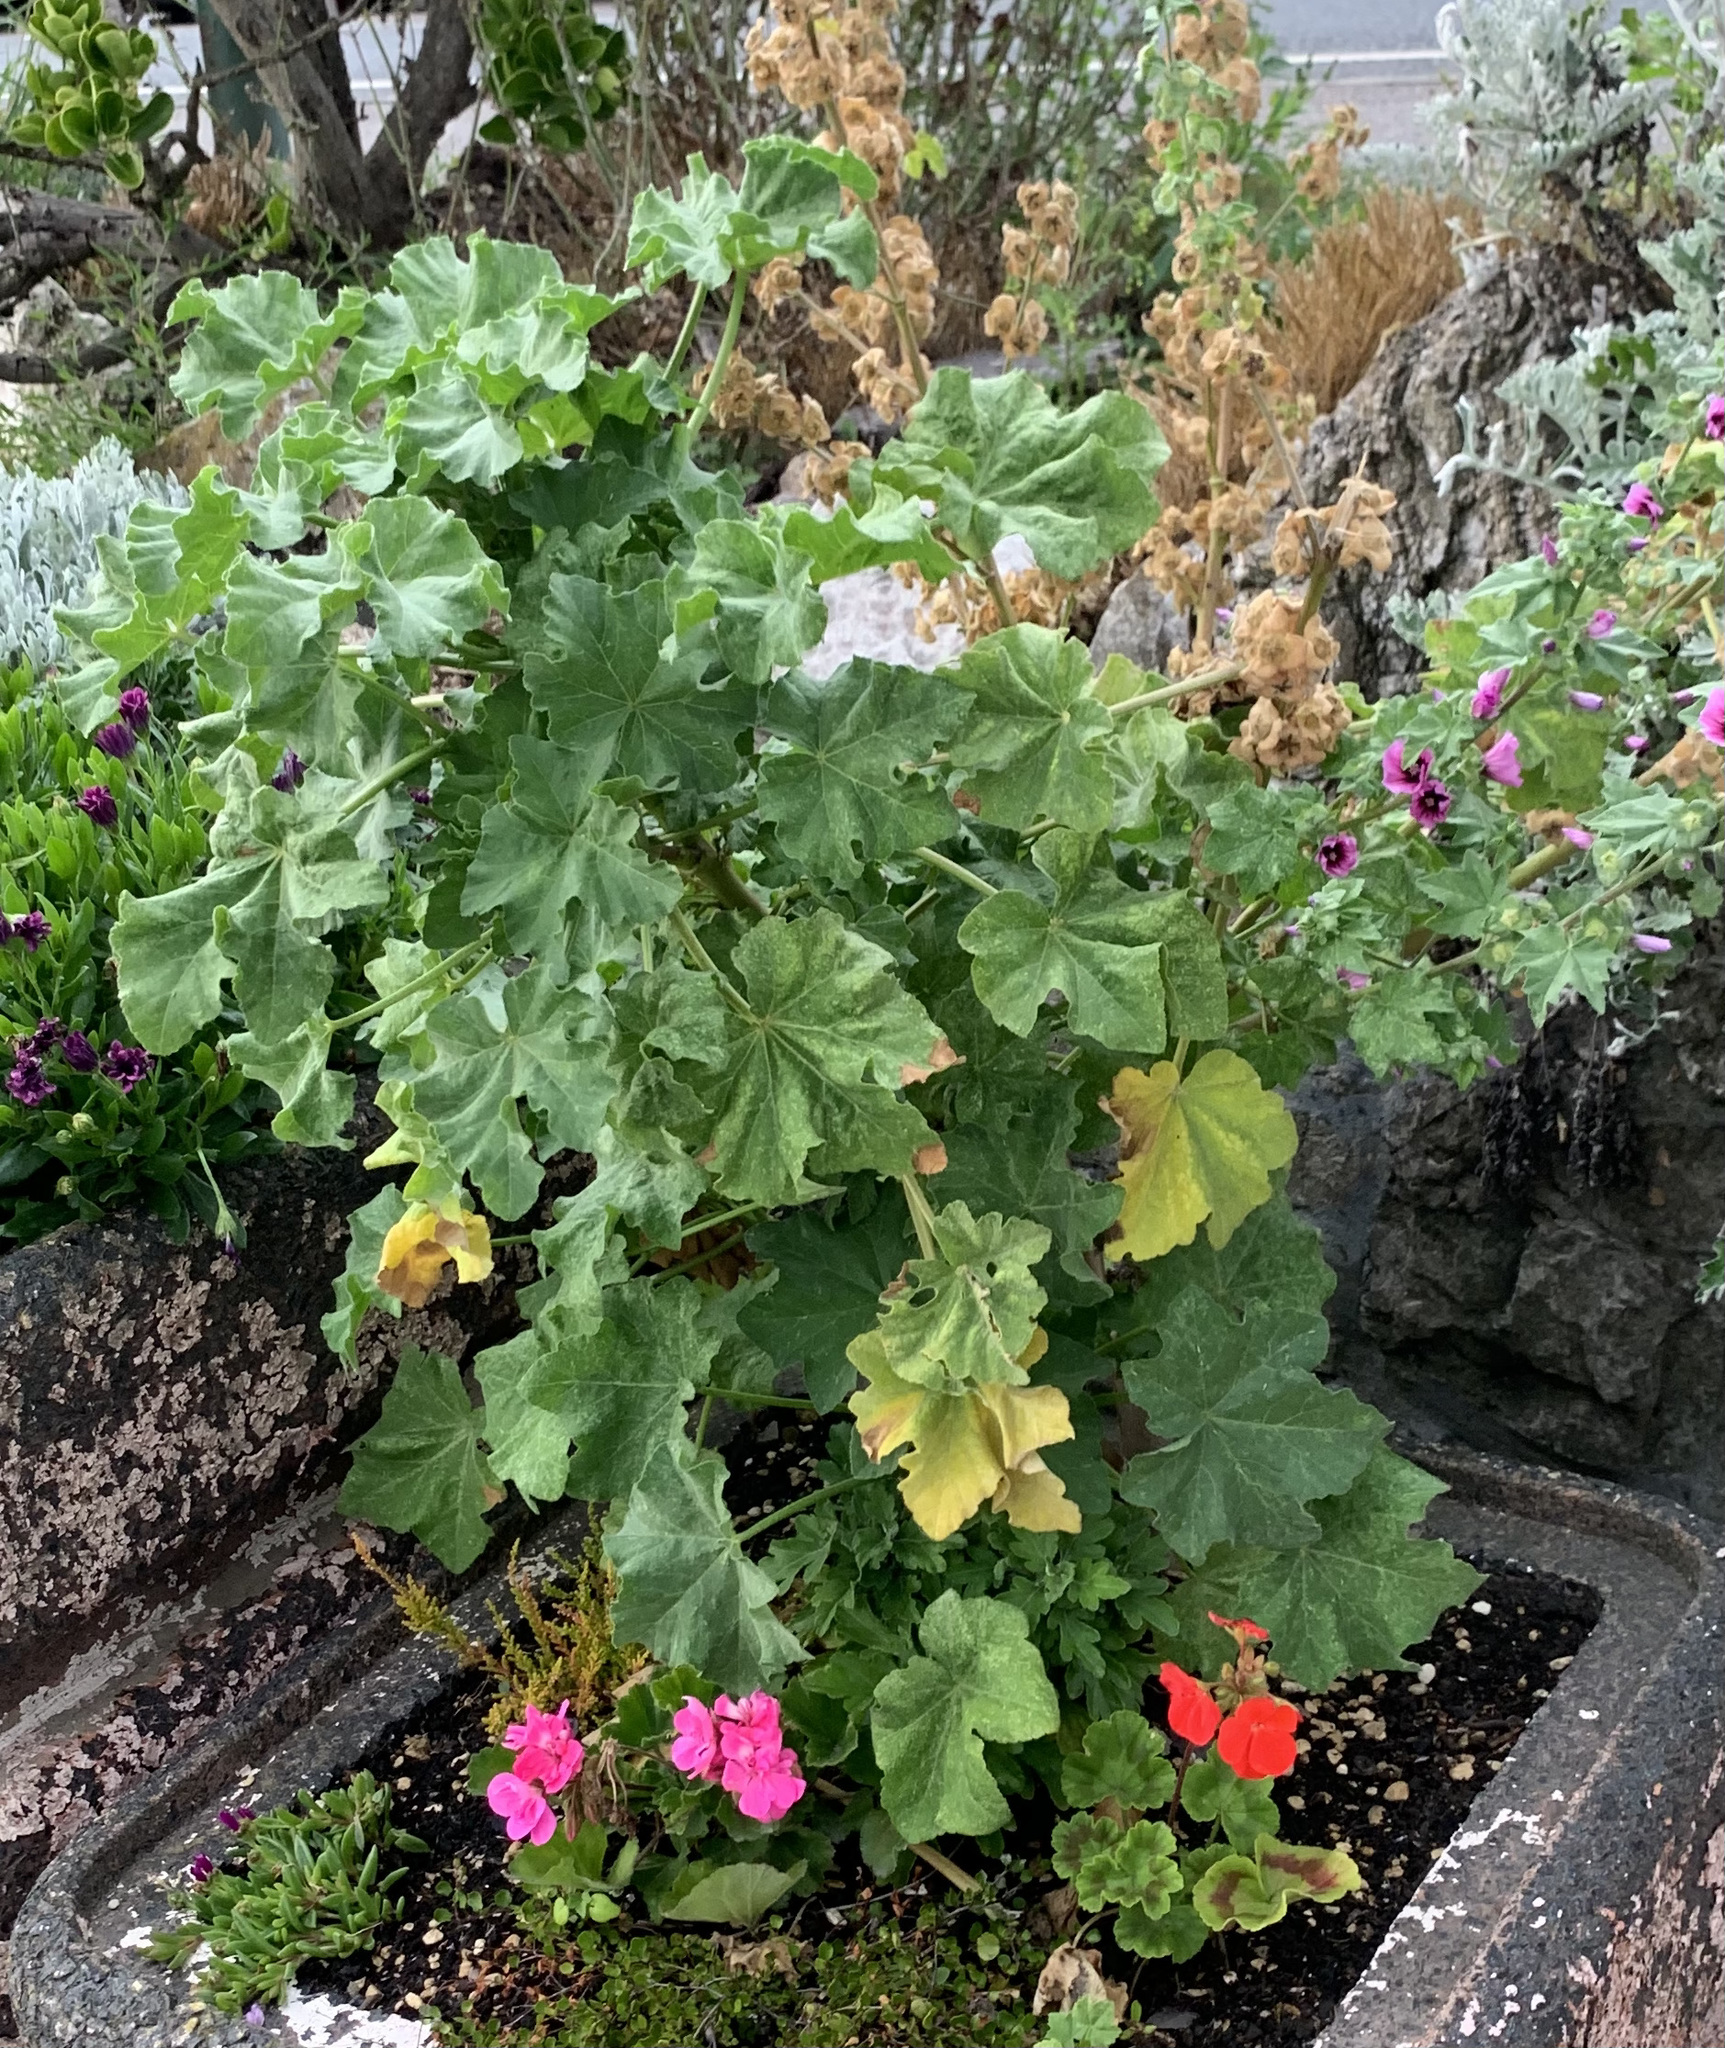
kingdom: Plantae
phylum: Tracheophyta
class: Magnoliopsida
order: Malvales
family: Malvaceae
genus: Malva
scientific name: Malva arborea
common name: Tree mallow
